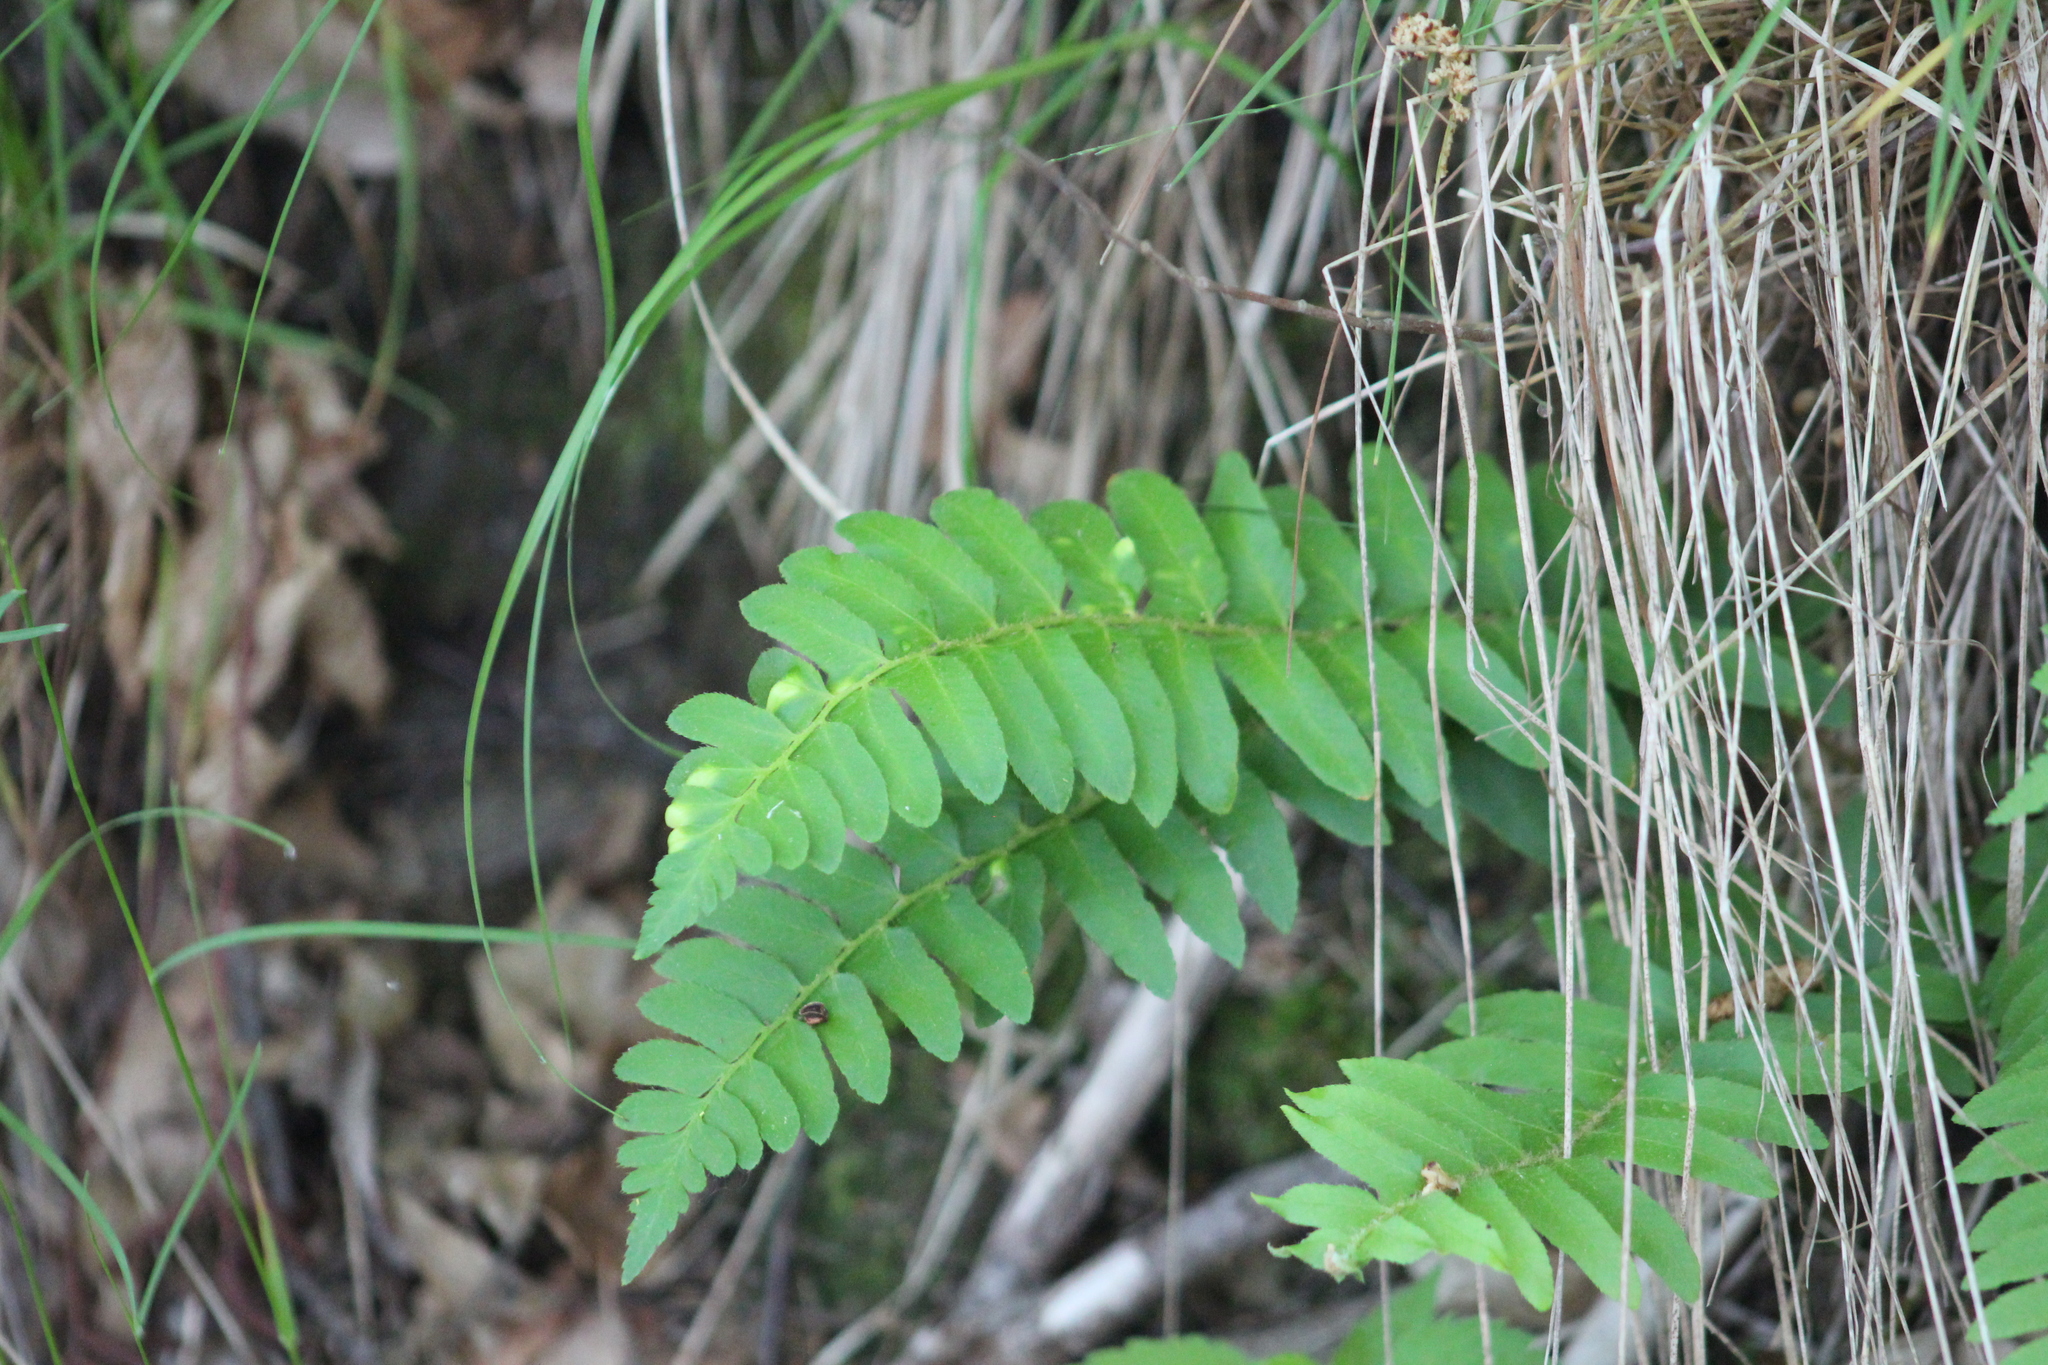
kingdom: Plantae
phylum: Tracheophyta
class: Polypodiopsida
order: Polypodiales
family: Dryopteridaceae
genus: Polystichum
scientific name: Polystichum acrostichoides
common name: Christmas fern
